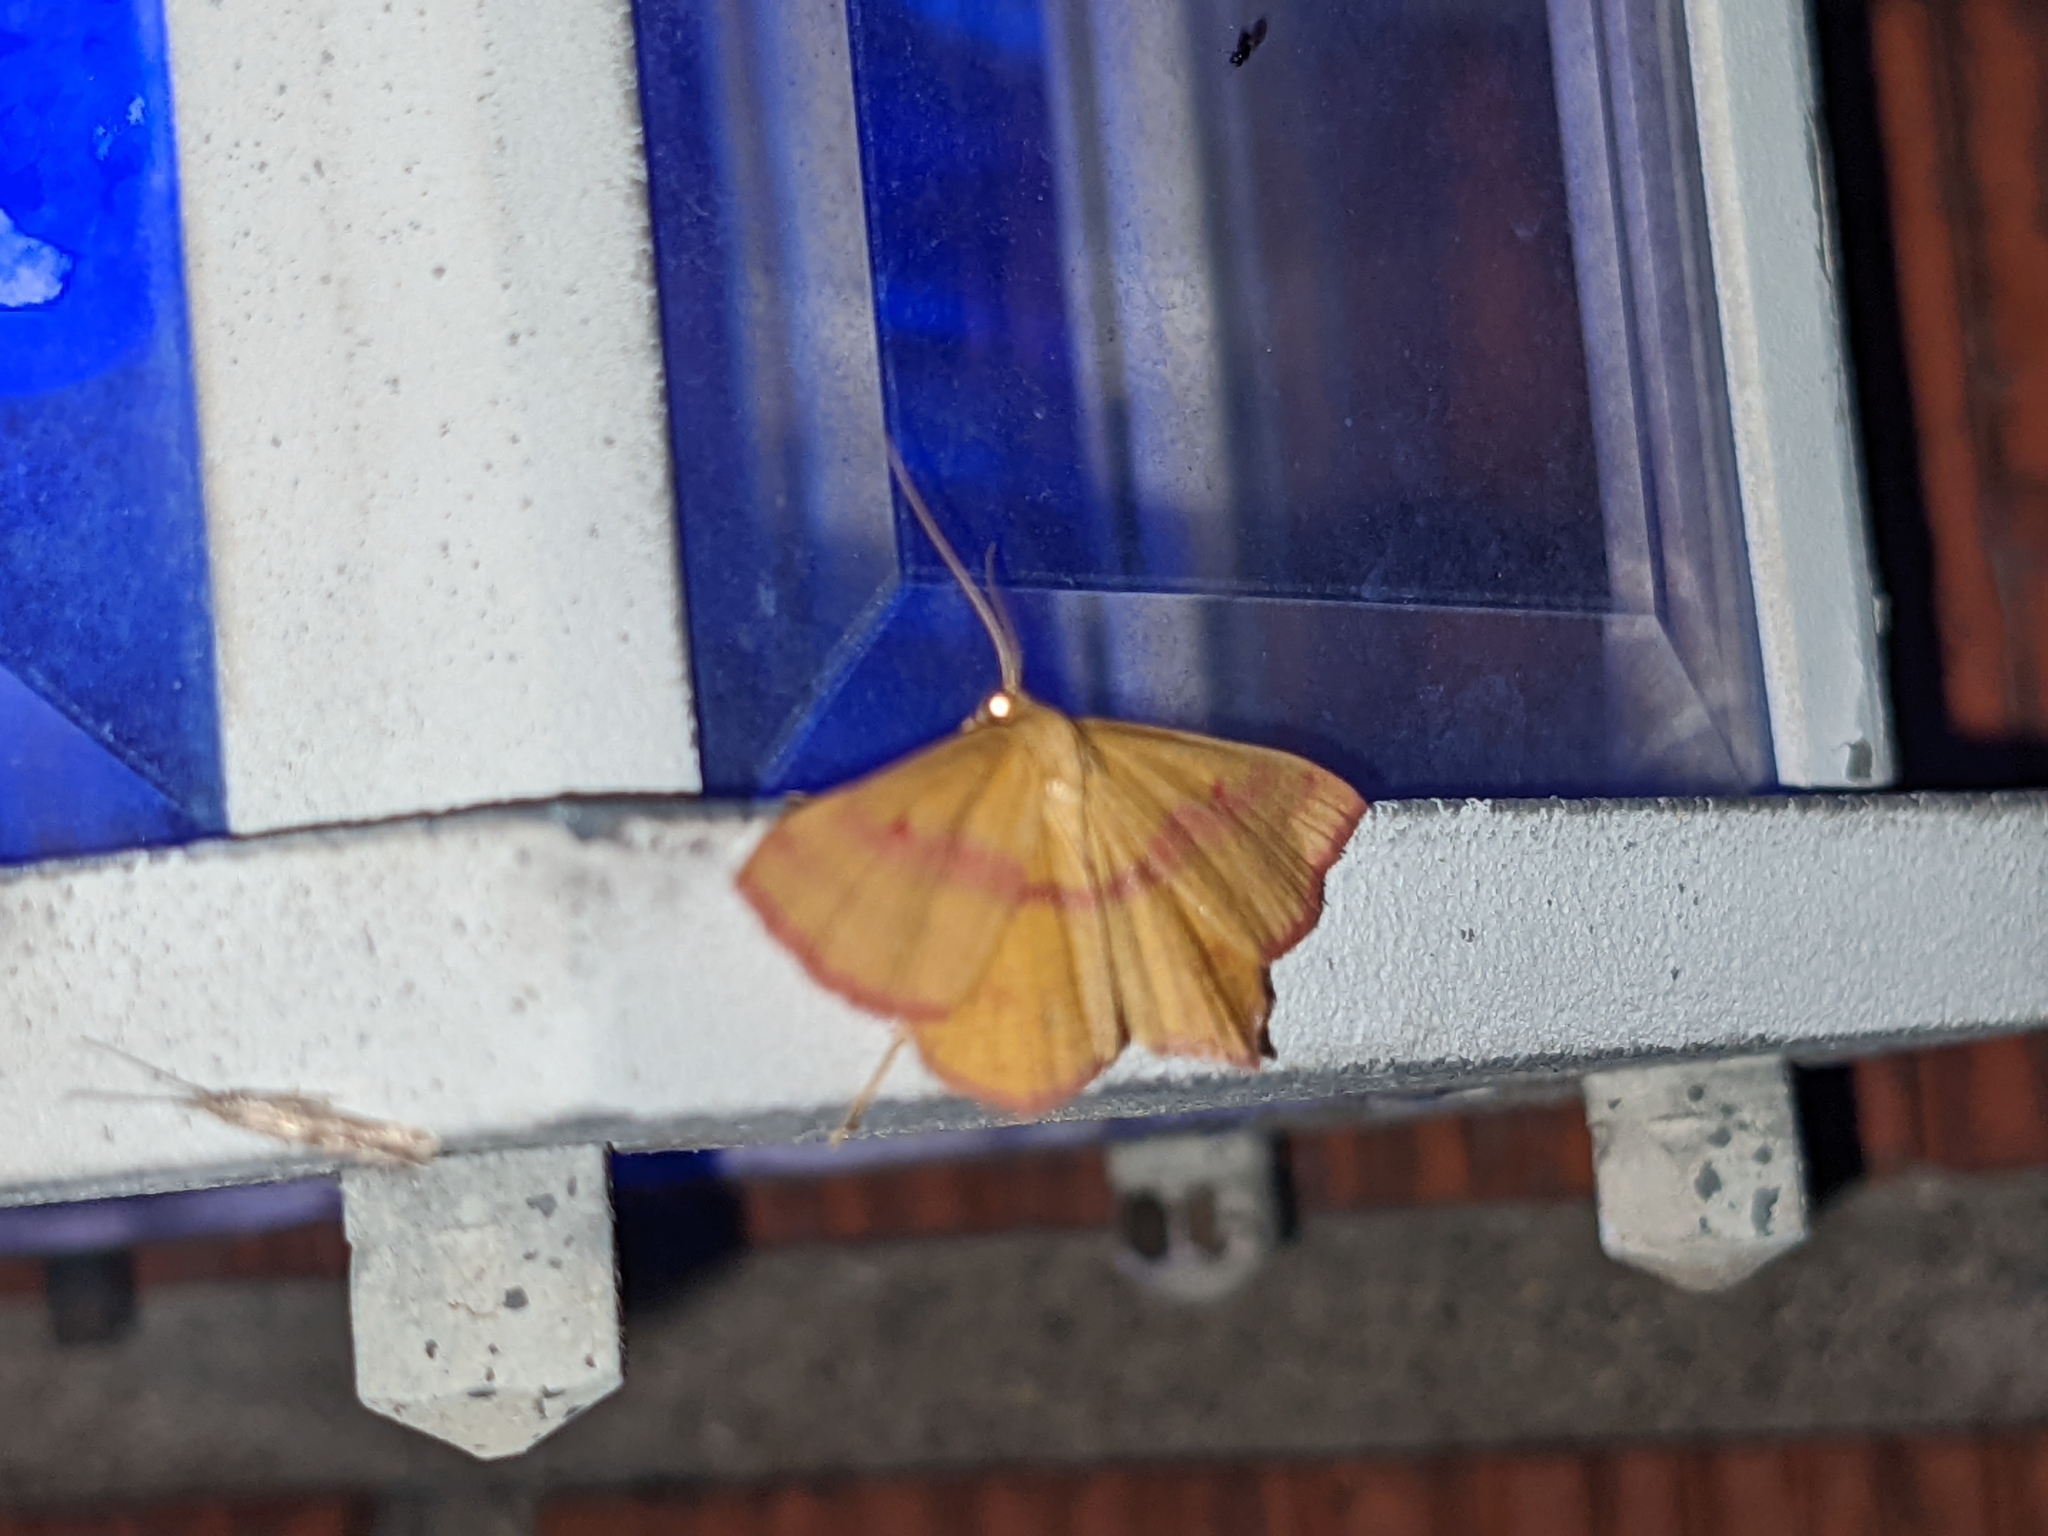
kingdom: Animalia
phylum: Arthropoda
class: Insecta
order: Lepidoptera
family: Geometridae
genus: Haematopis
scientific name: Haematopis grataria
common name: Chickweed geometer
